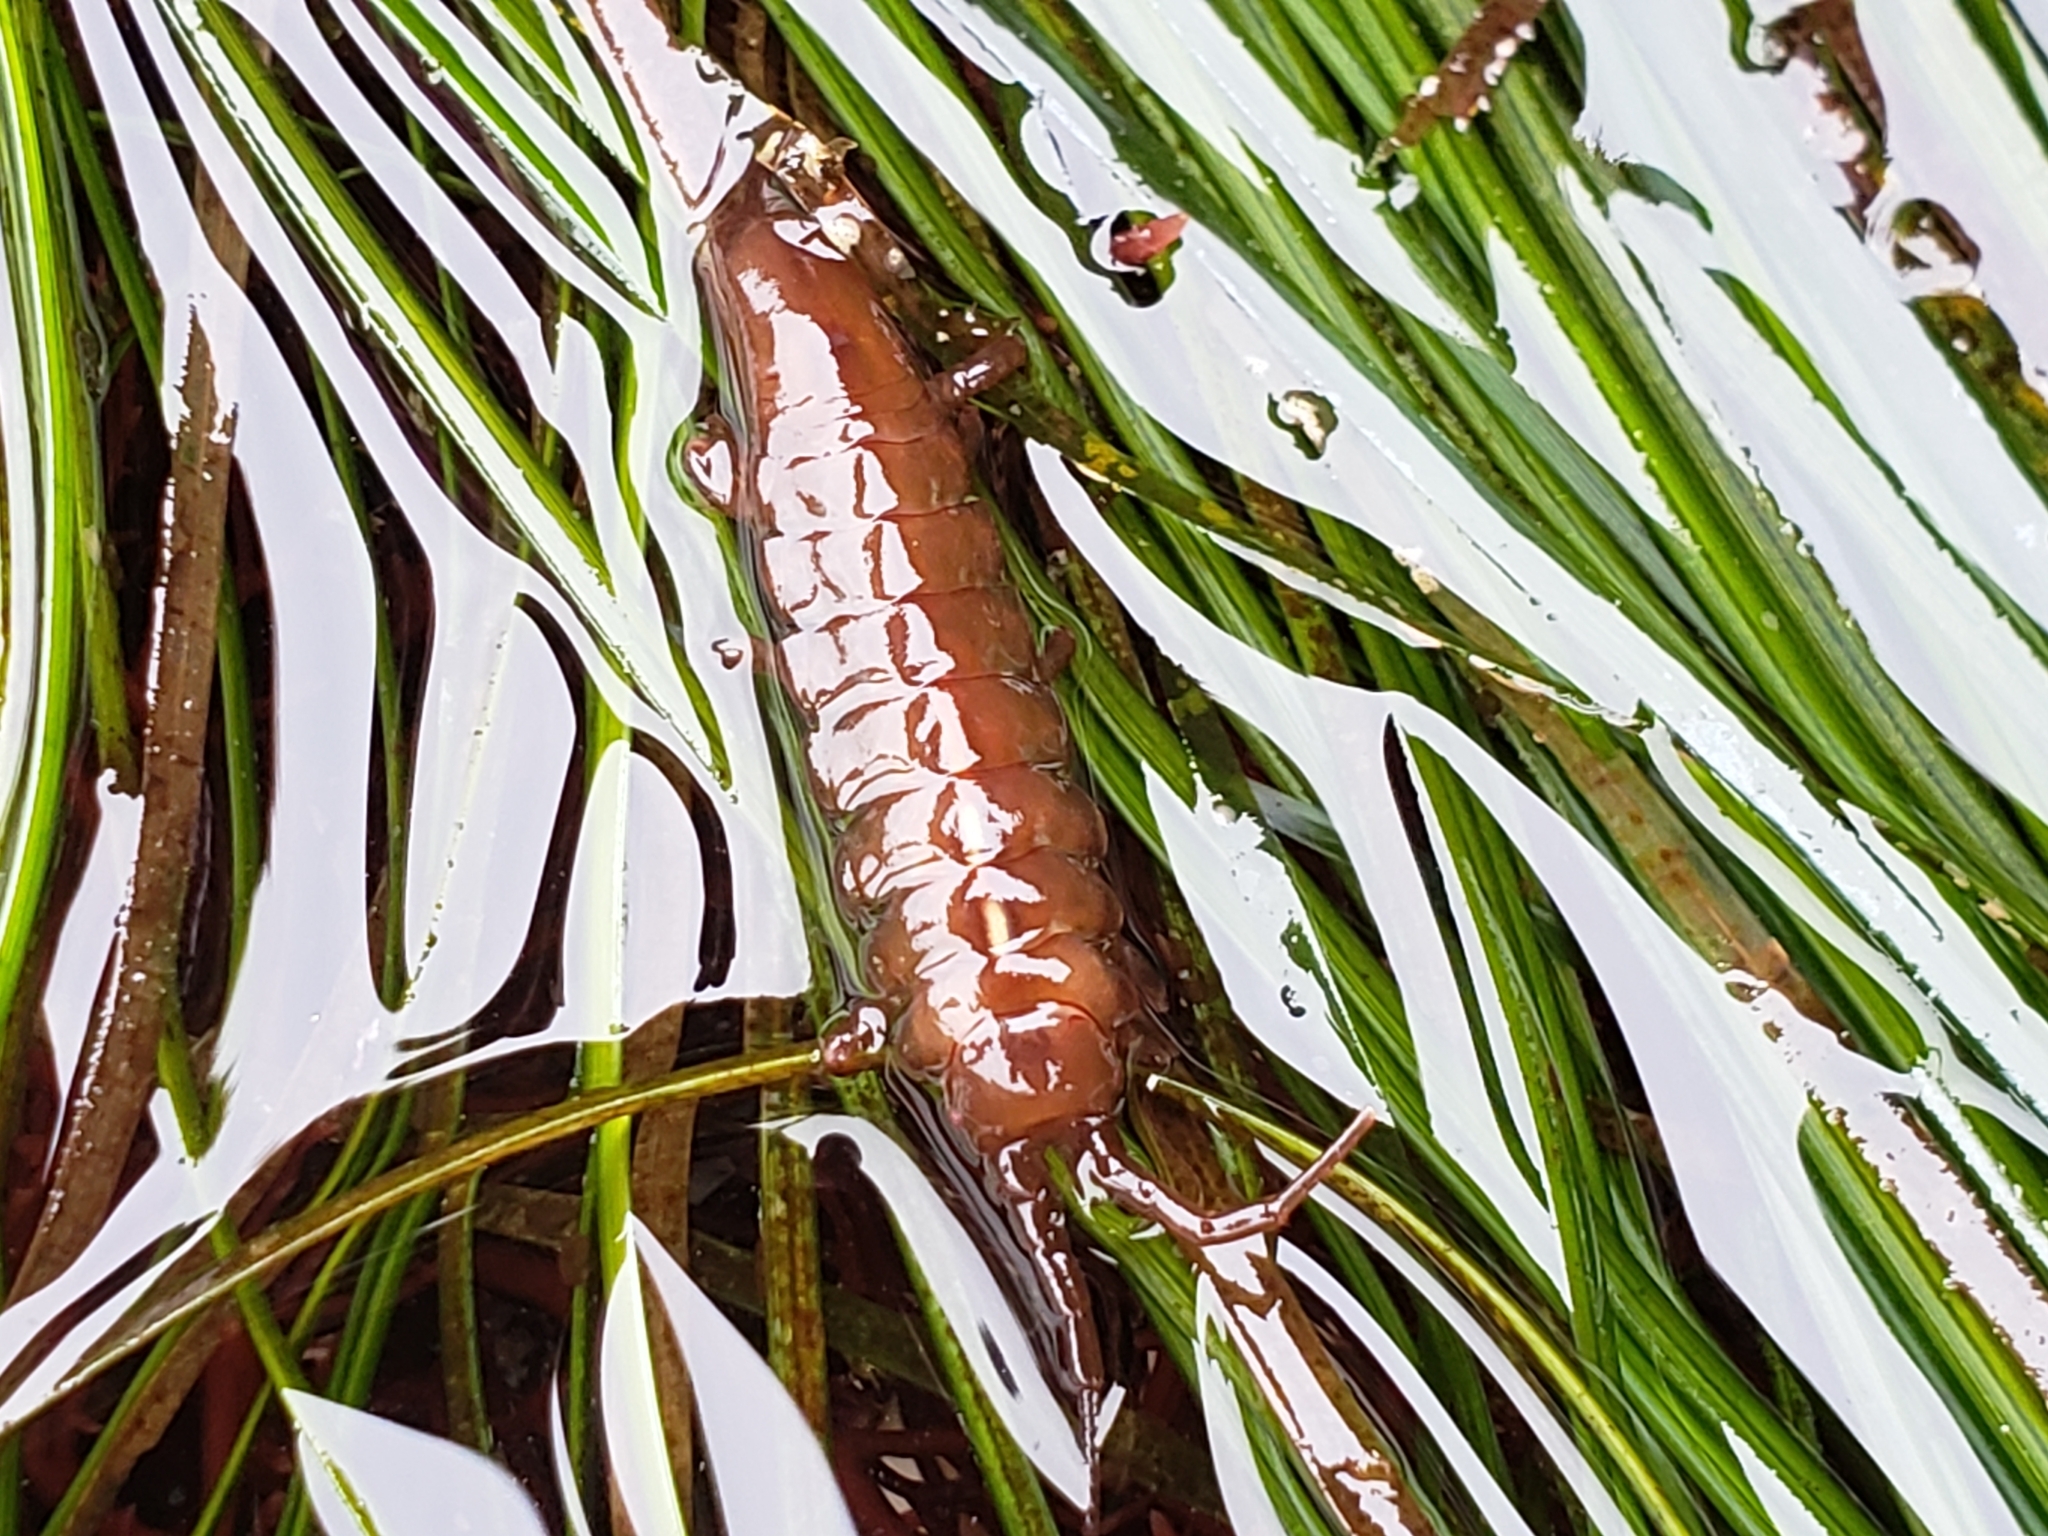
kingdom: Animalia
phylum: Arthropoda
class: Malacostraca
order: Isopoda
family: Idoteidae
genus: Pentidotea
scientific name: Pentidotea wosnesenskii
